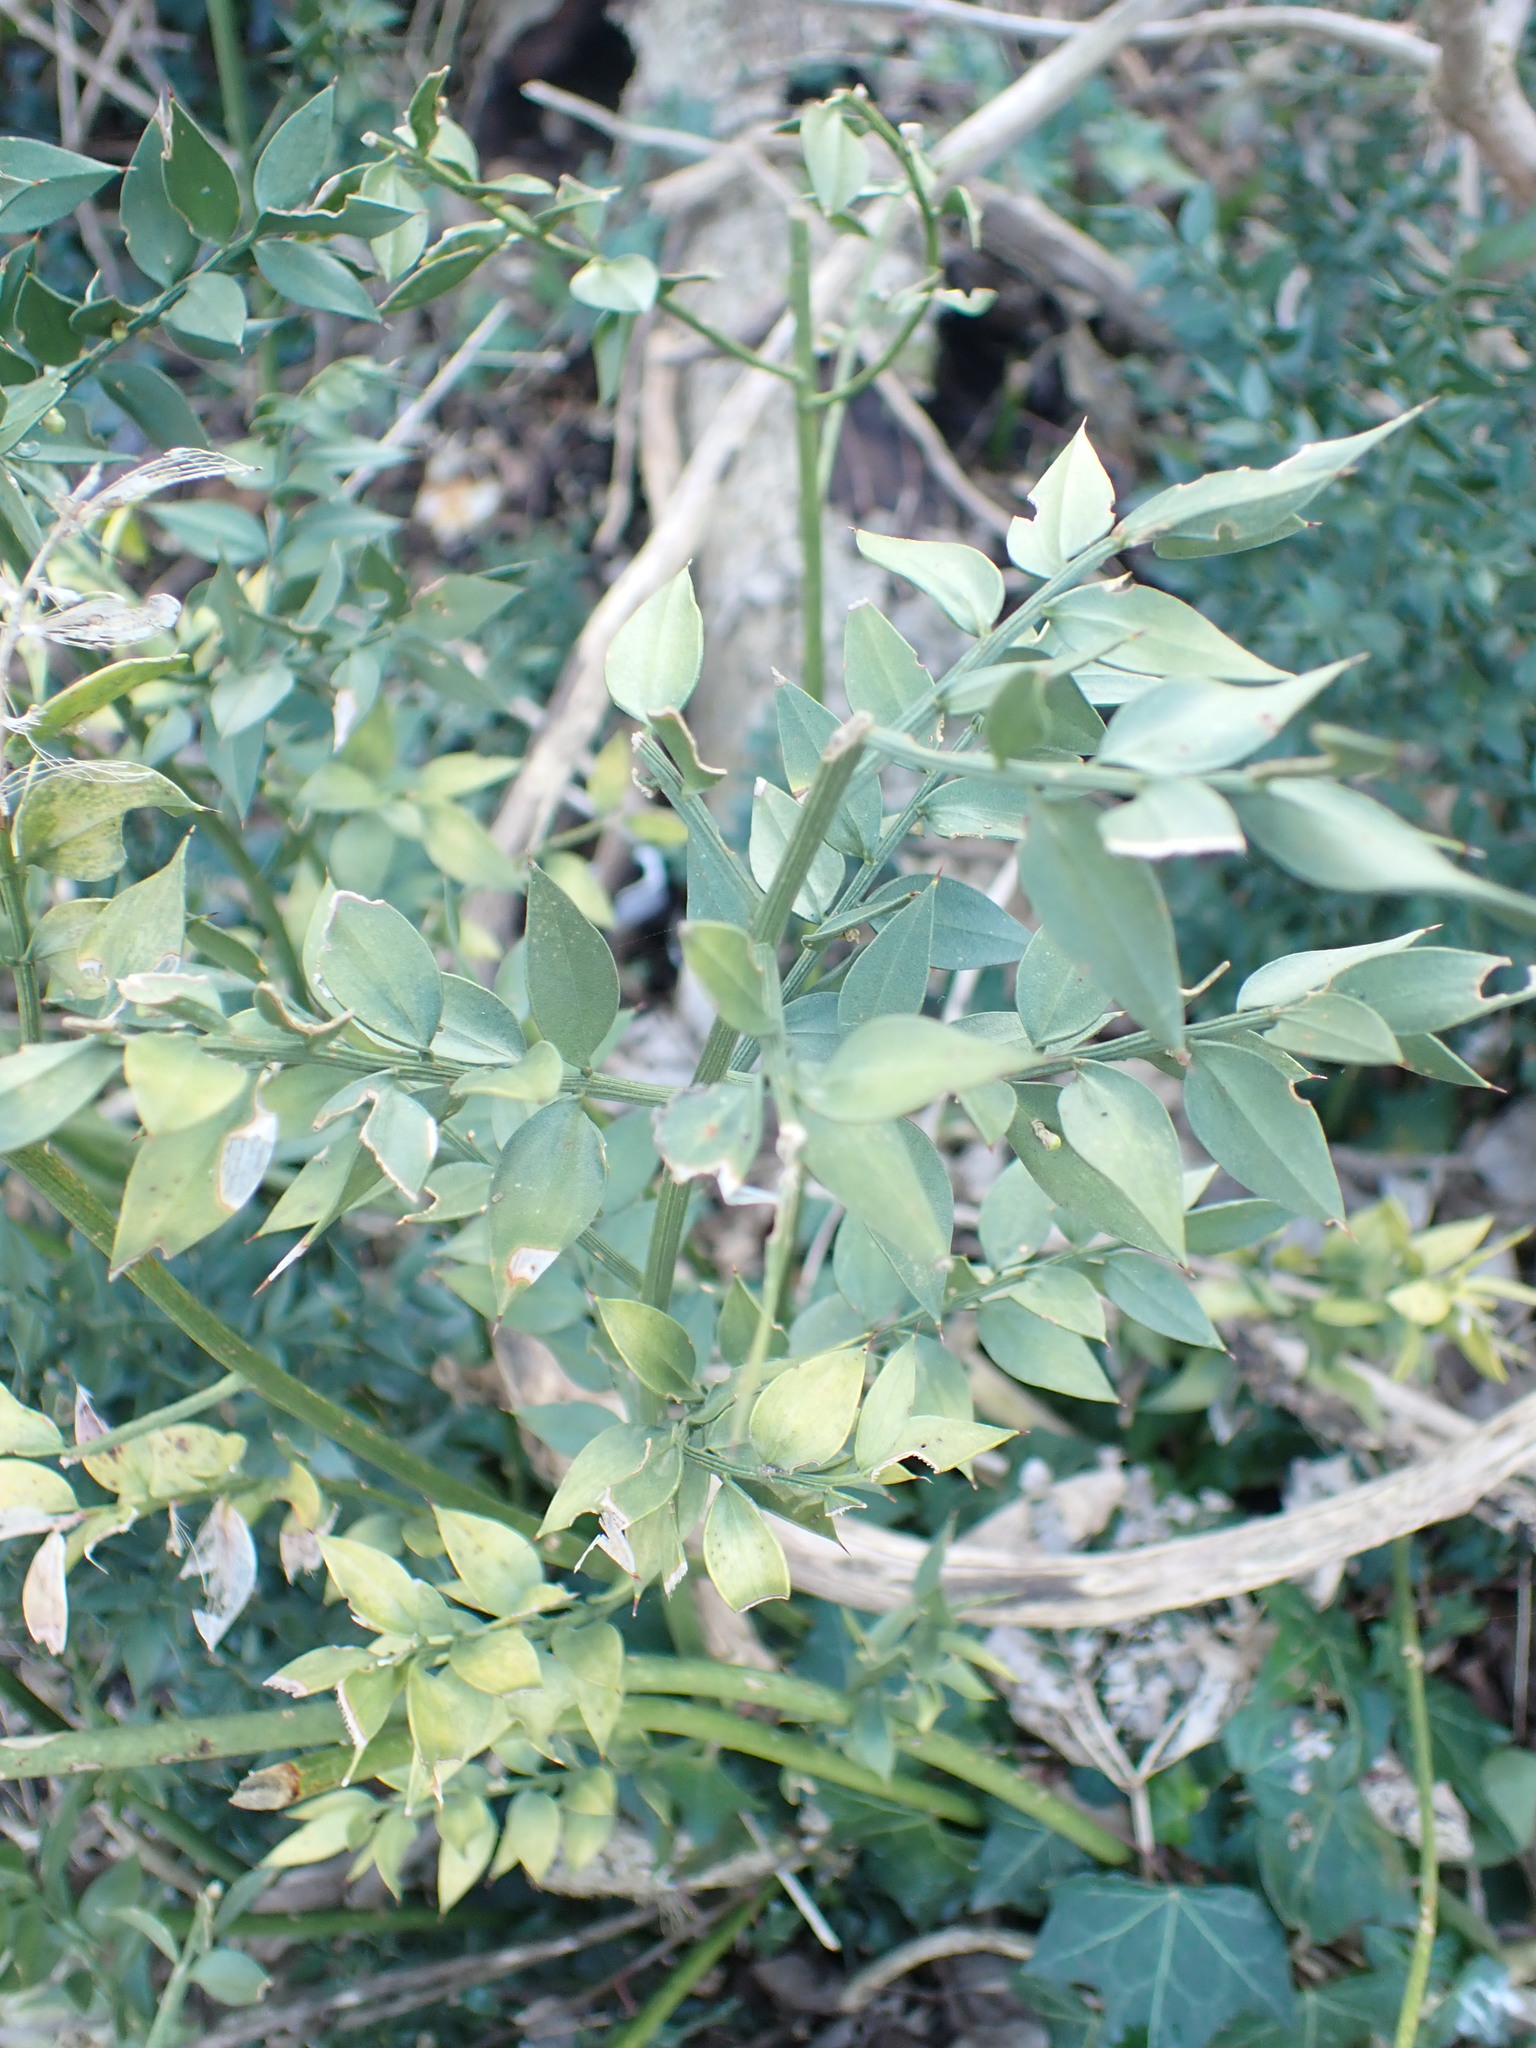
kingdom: Plantae
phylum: Tracheophyta
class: Liliopsida
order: Asparagales
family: Asparagaceae
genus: Ruscus
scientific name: Ruscus aculeatus
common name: Butcher's-broom
